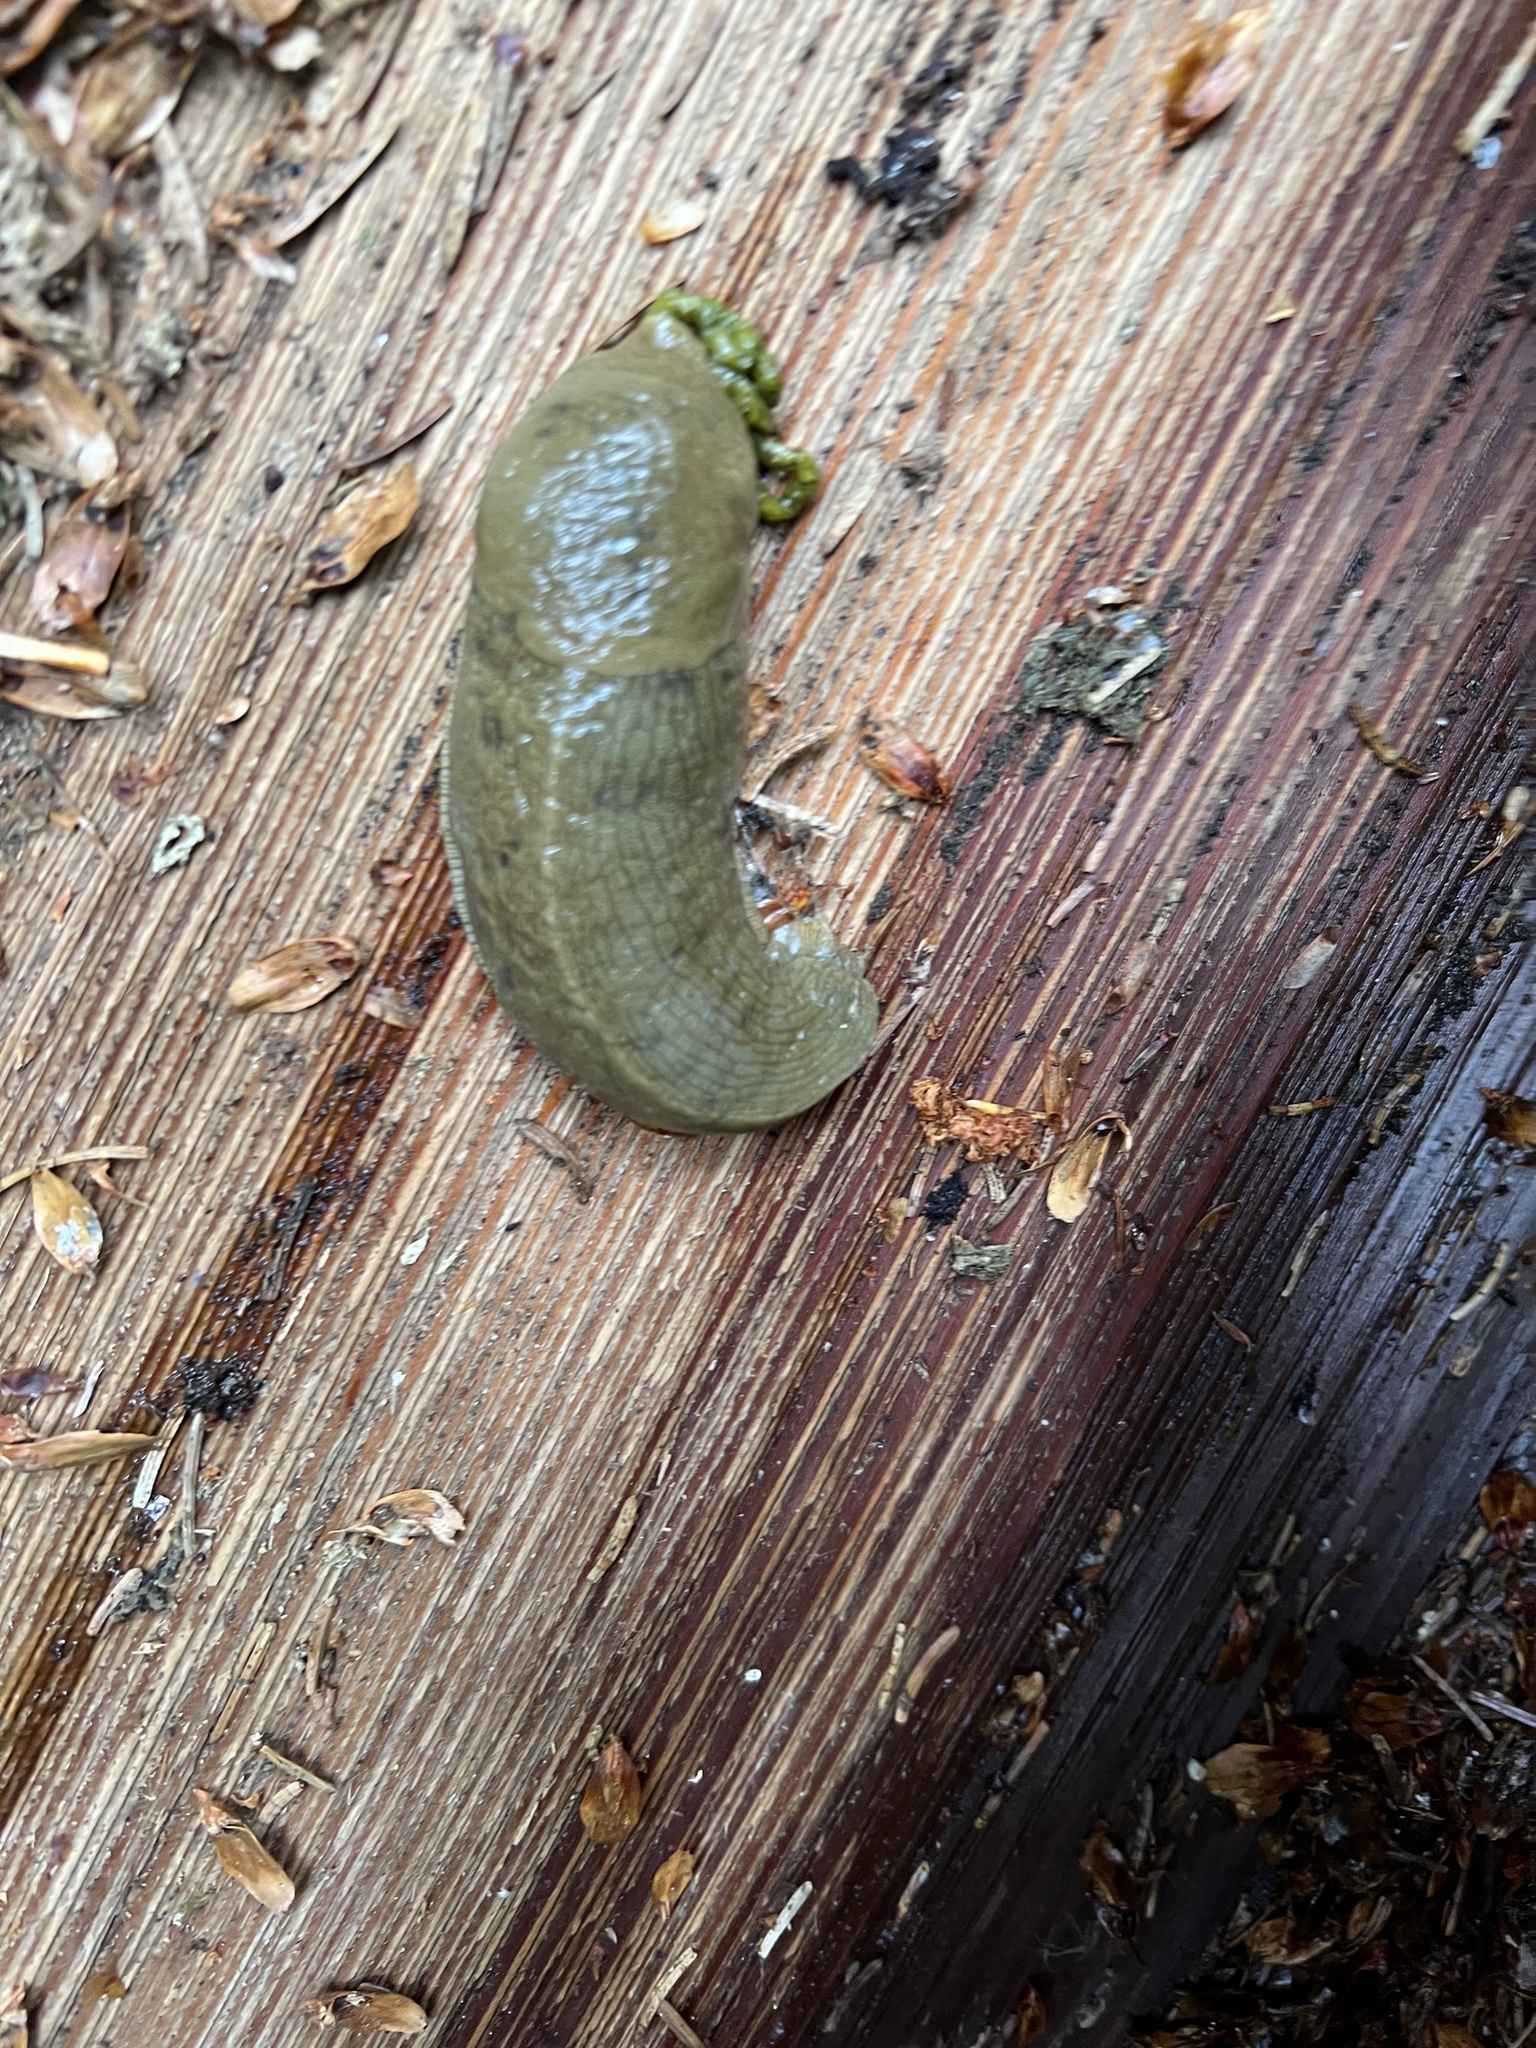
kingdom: Animalia
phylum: Mollusca
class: Gastropoda
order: Stylommatophora
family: Ariolimacidae
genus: Ariolimax
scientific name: Ariolimax columbianus
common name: Pacific banana slug
